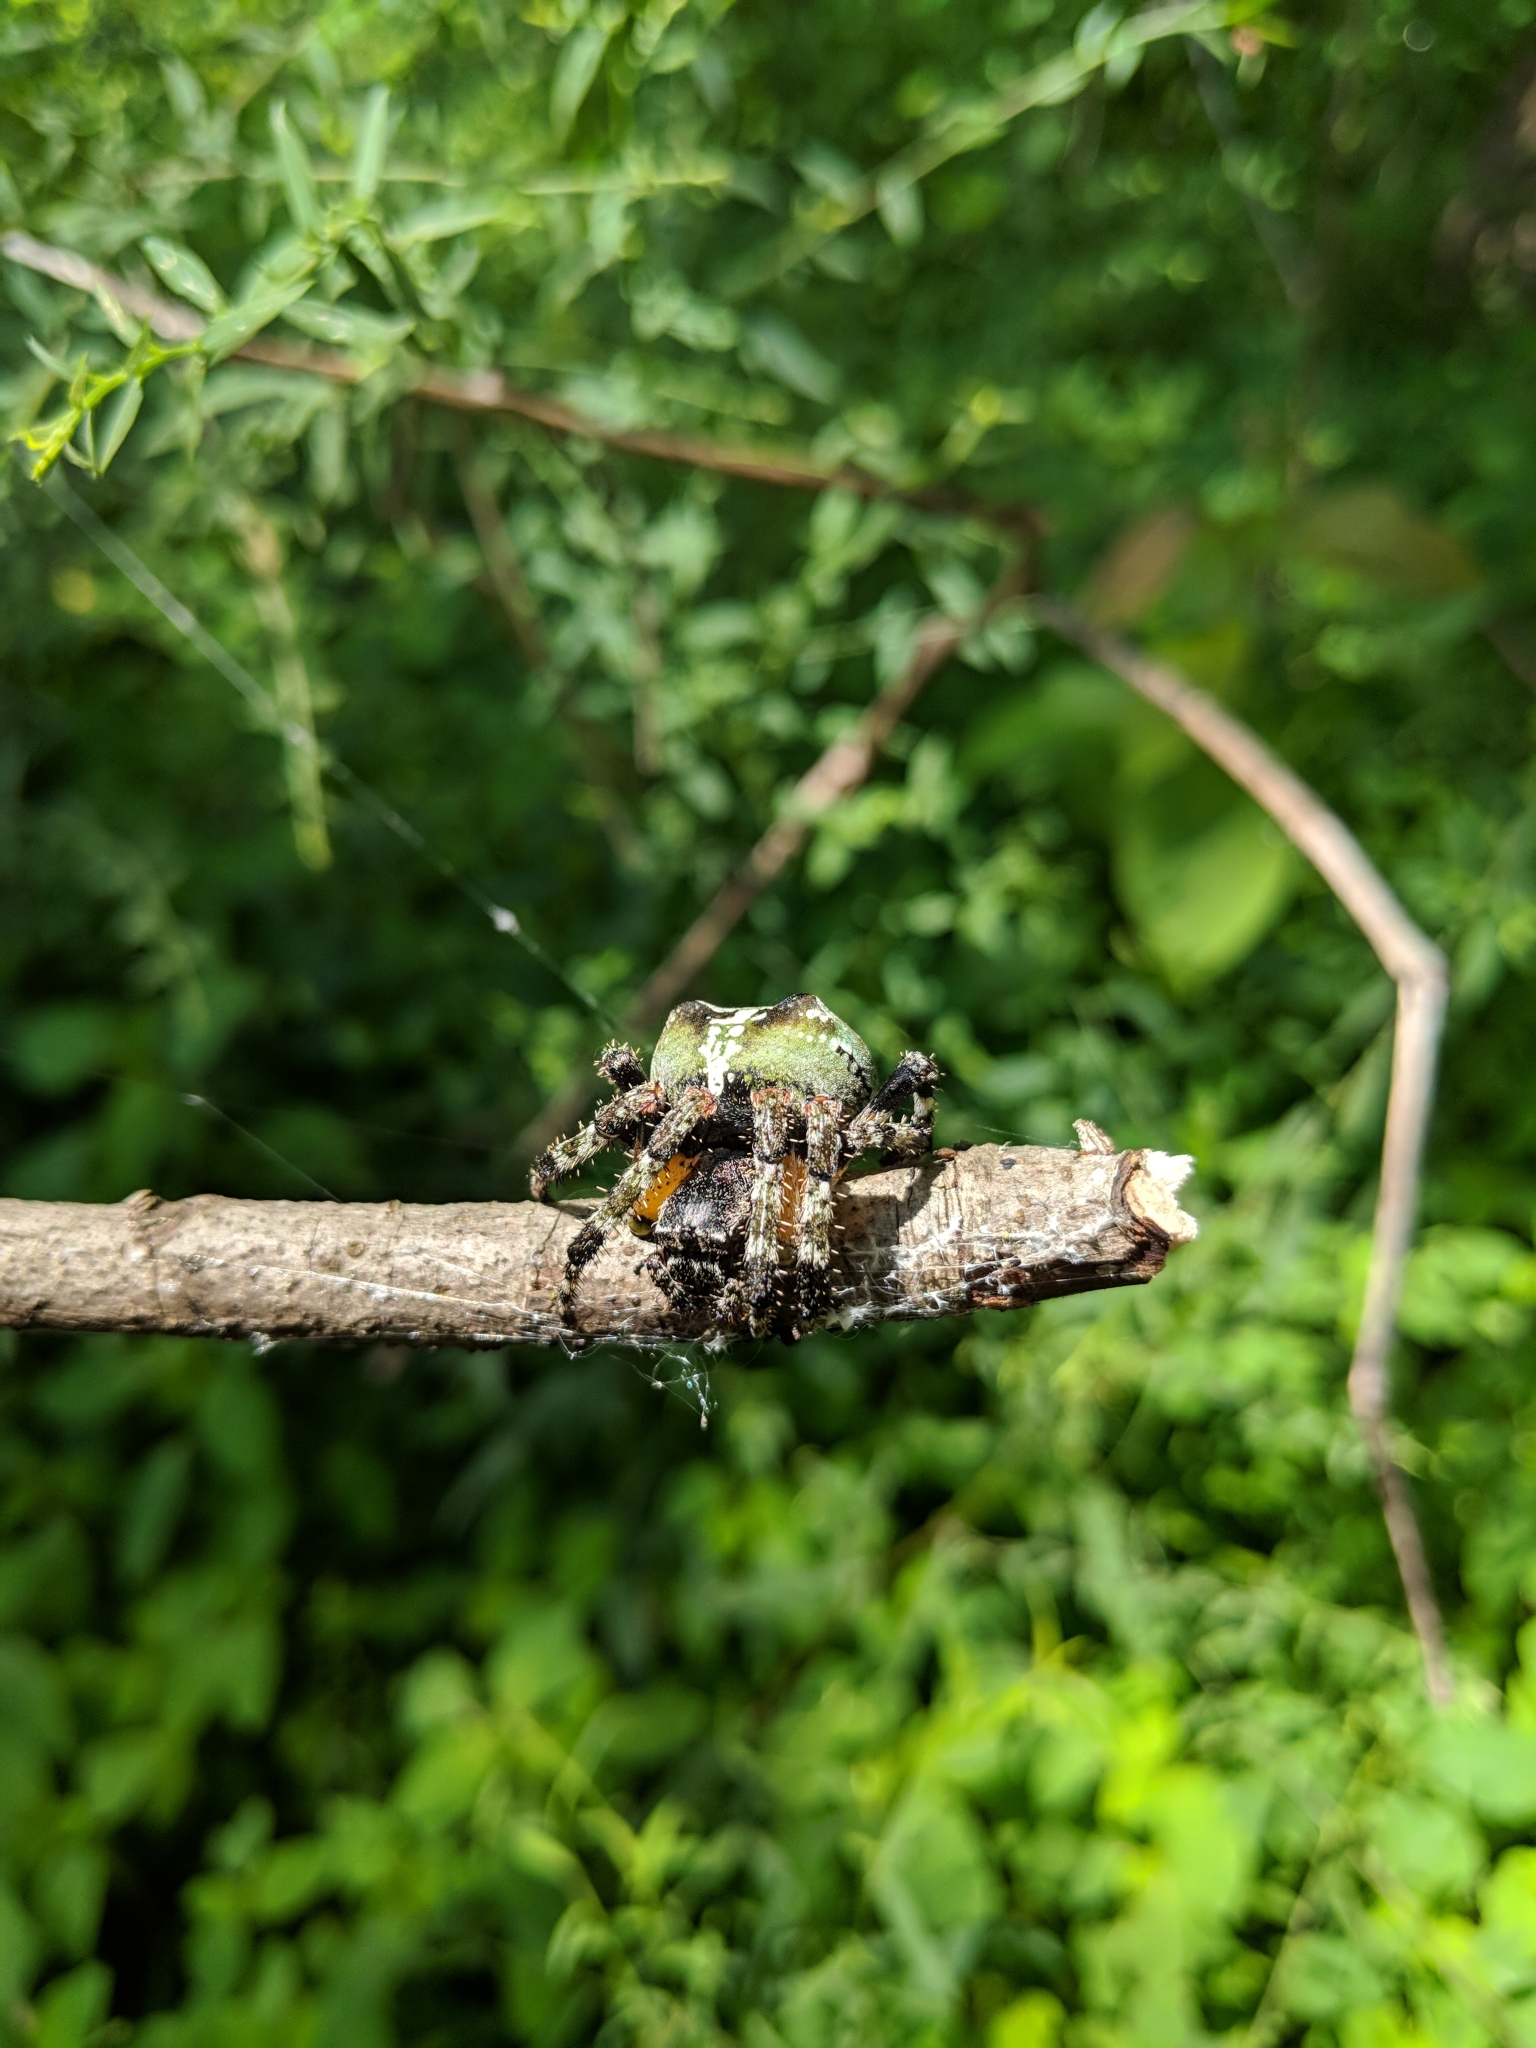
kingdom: Animalia
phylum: Arthropoda
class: Arachnida
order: Araneae
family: Araneidae
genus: Araneus
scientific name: Araneus bicentenarius
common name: Giant lichen orbweaver
